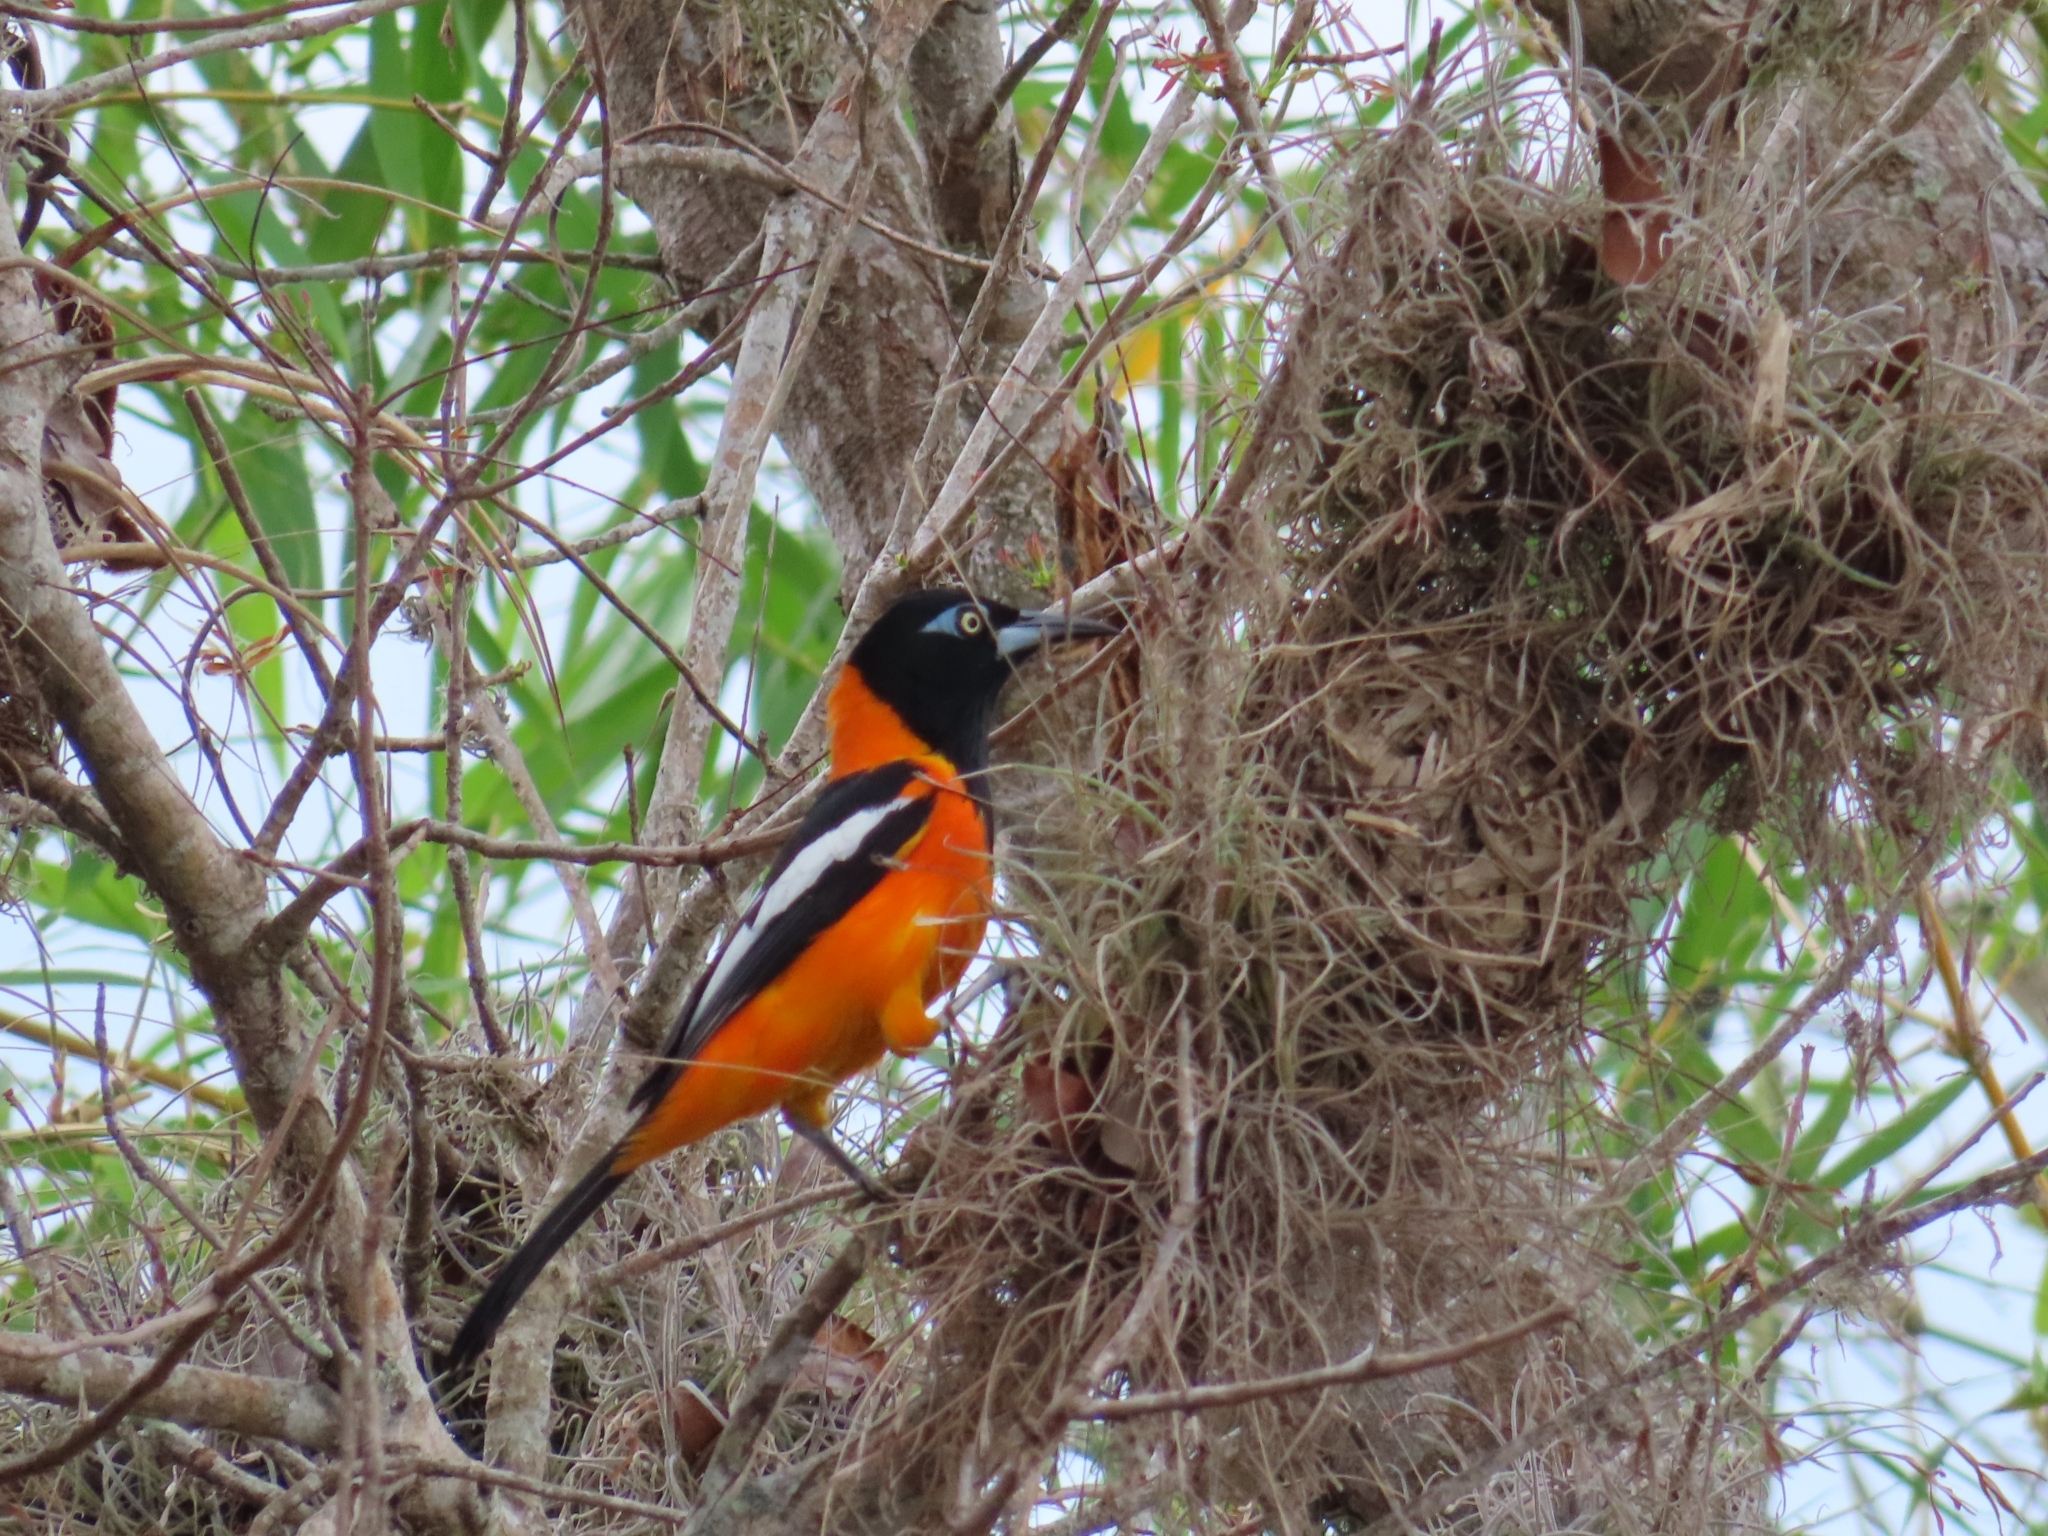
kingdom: Animalia
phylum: Chordata
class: Aves
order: Passeriformes
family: Icteridae
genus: Icterus
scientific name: Icterus icterus
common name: Venezuelan troupial
